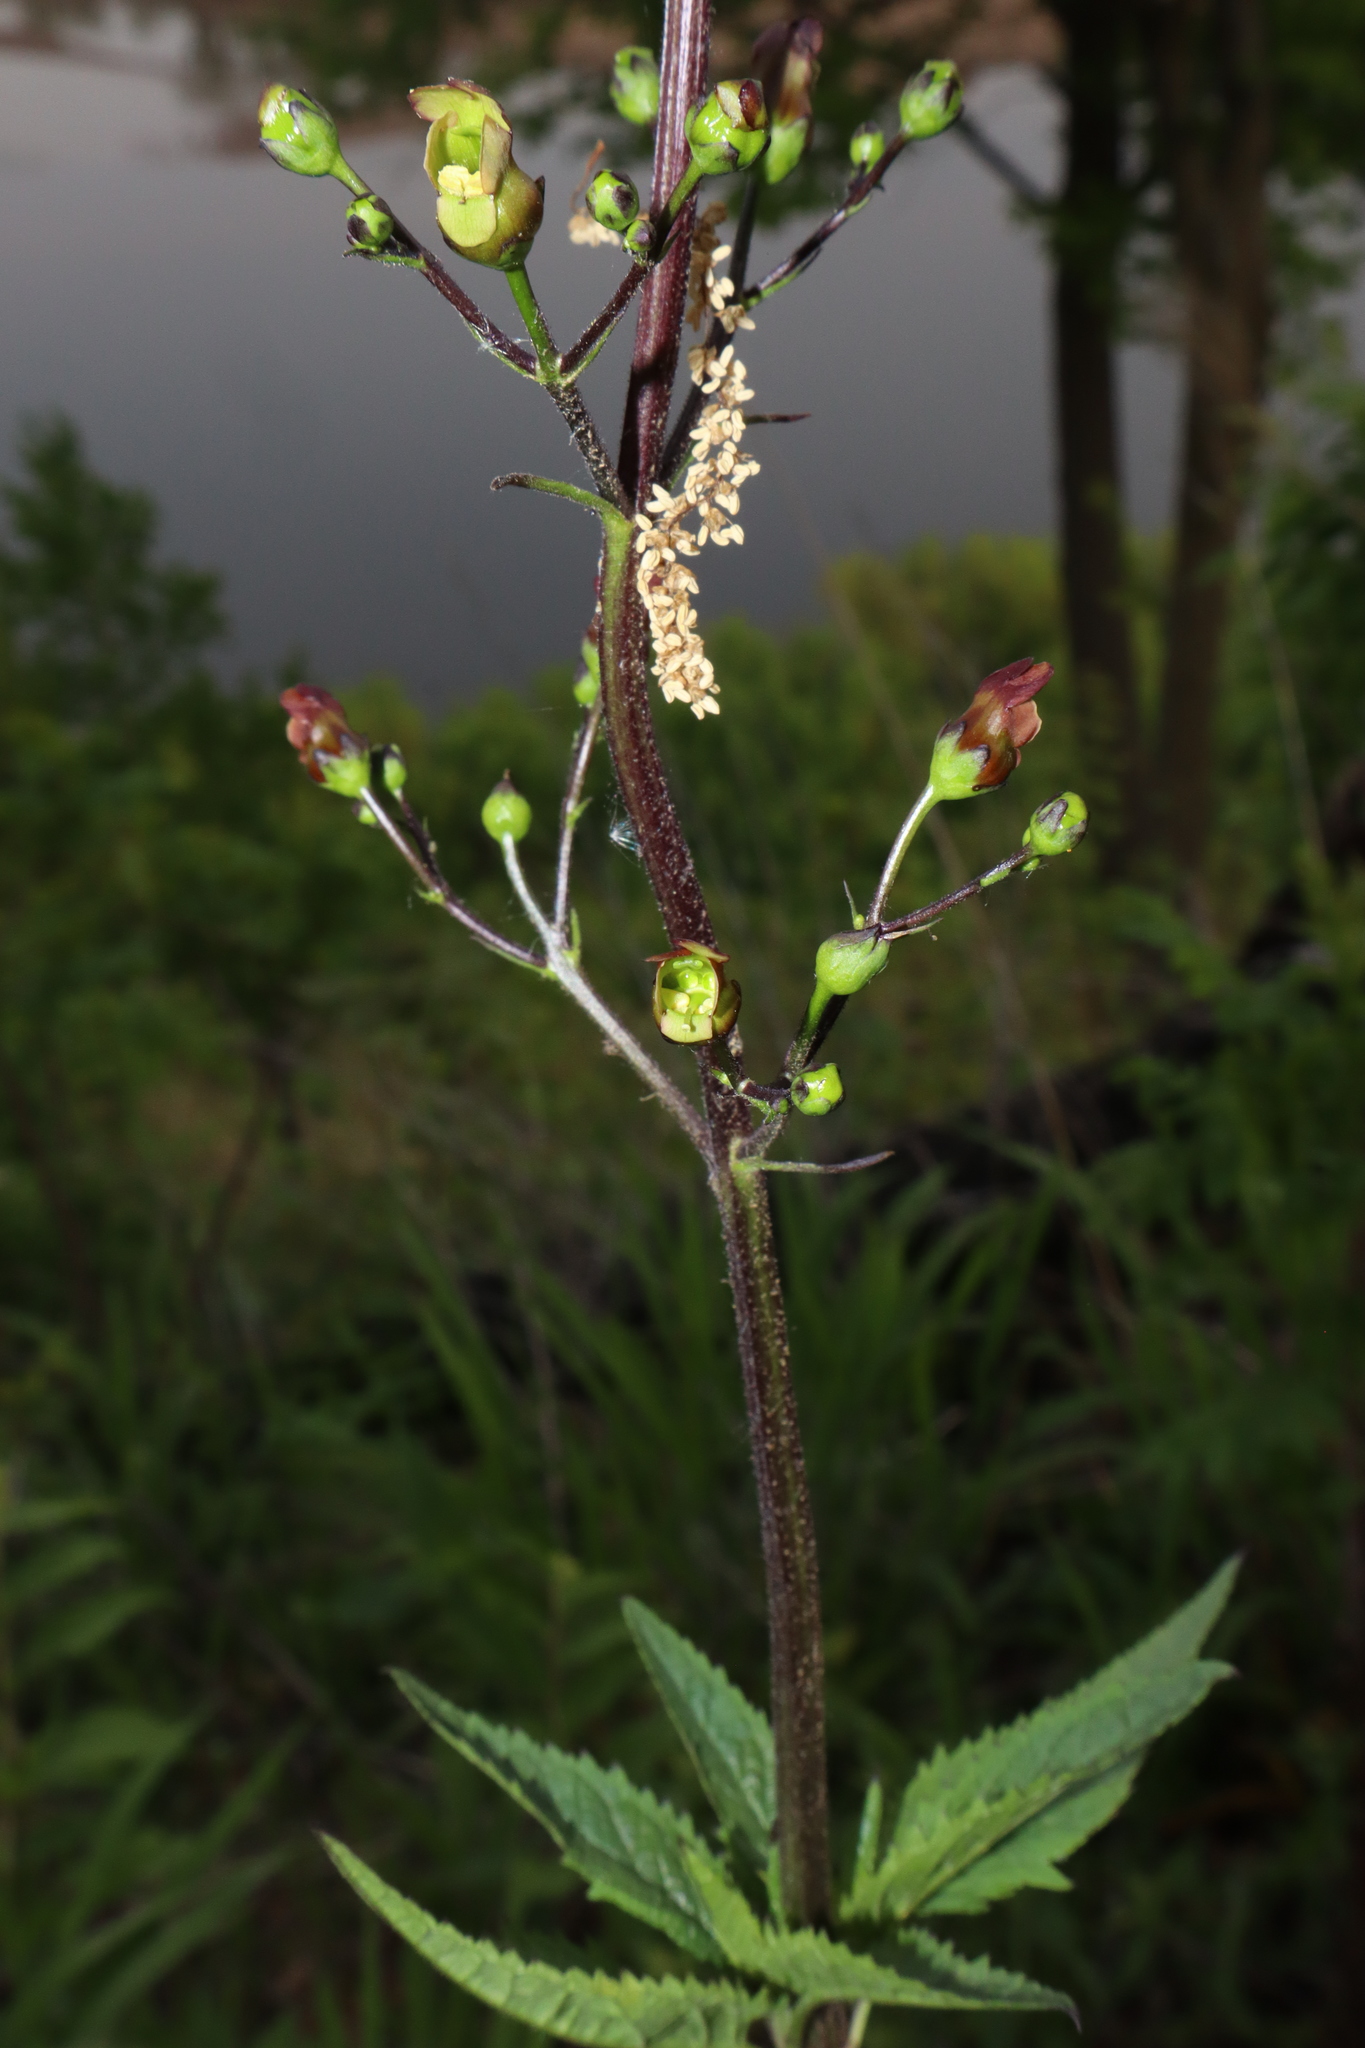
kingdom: Plantae
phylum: Tracheophyta
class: Magnoliopsida
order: Lamiales
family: Scrophulariaceae
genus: Scrophularia
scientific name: Scrophularia lanceolata
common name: American figwort
